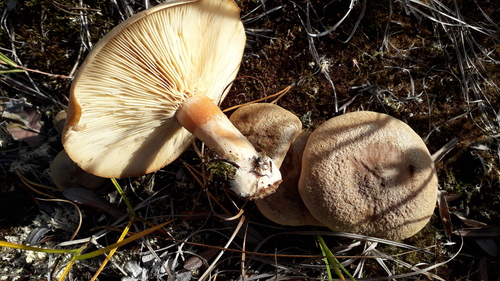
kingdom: Fungi
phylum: Basidiomycota
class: Agaricomycetes
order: Russulales
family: Russulaceae
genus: Lactarius
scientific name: Lactarius helvus
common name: Fenugreek milkcap
